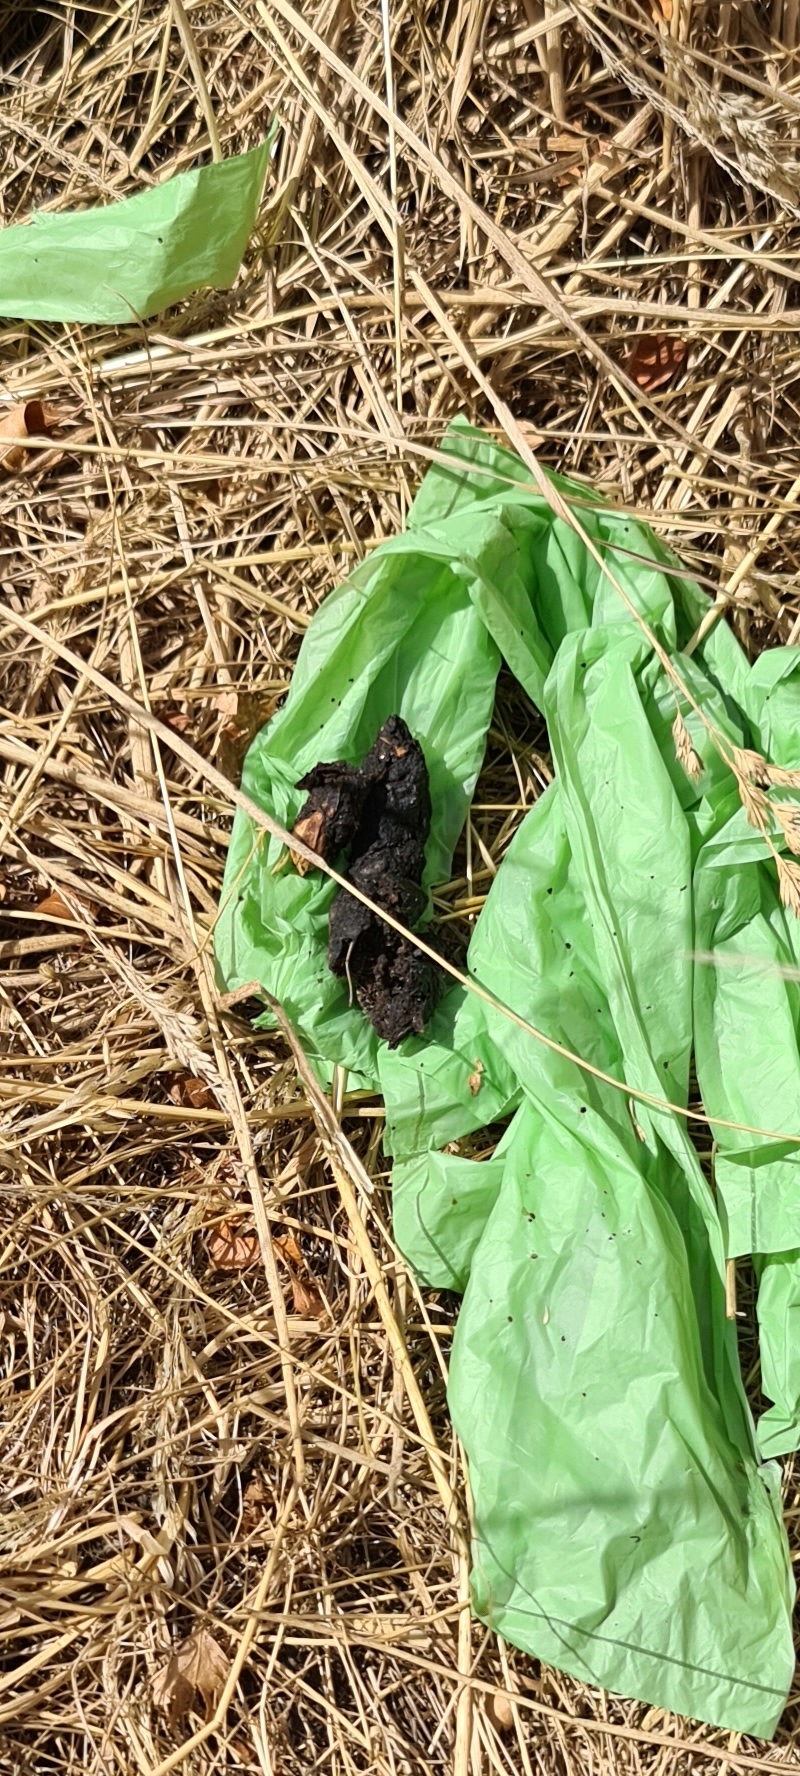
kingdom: Animalia
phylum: Chordata
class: Mammalia
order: Carnivora
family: Canidae
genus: Vulpes
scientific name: Vulpes vulpes
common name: Red fox
